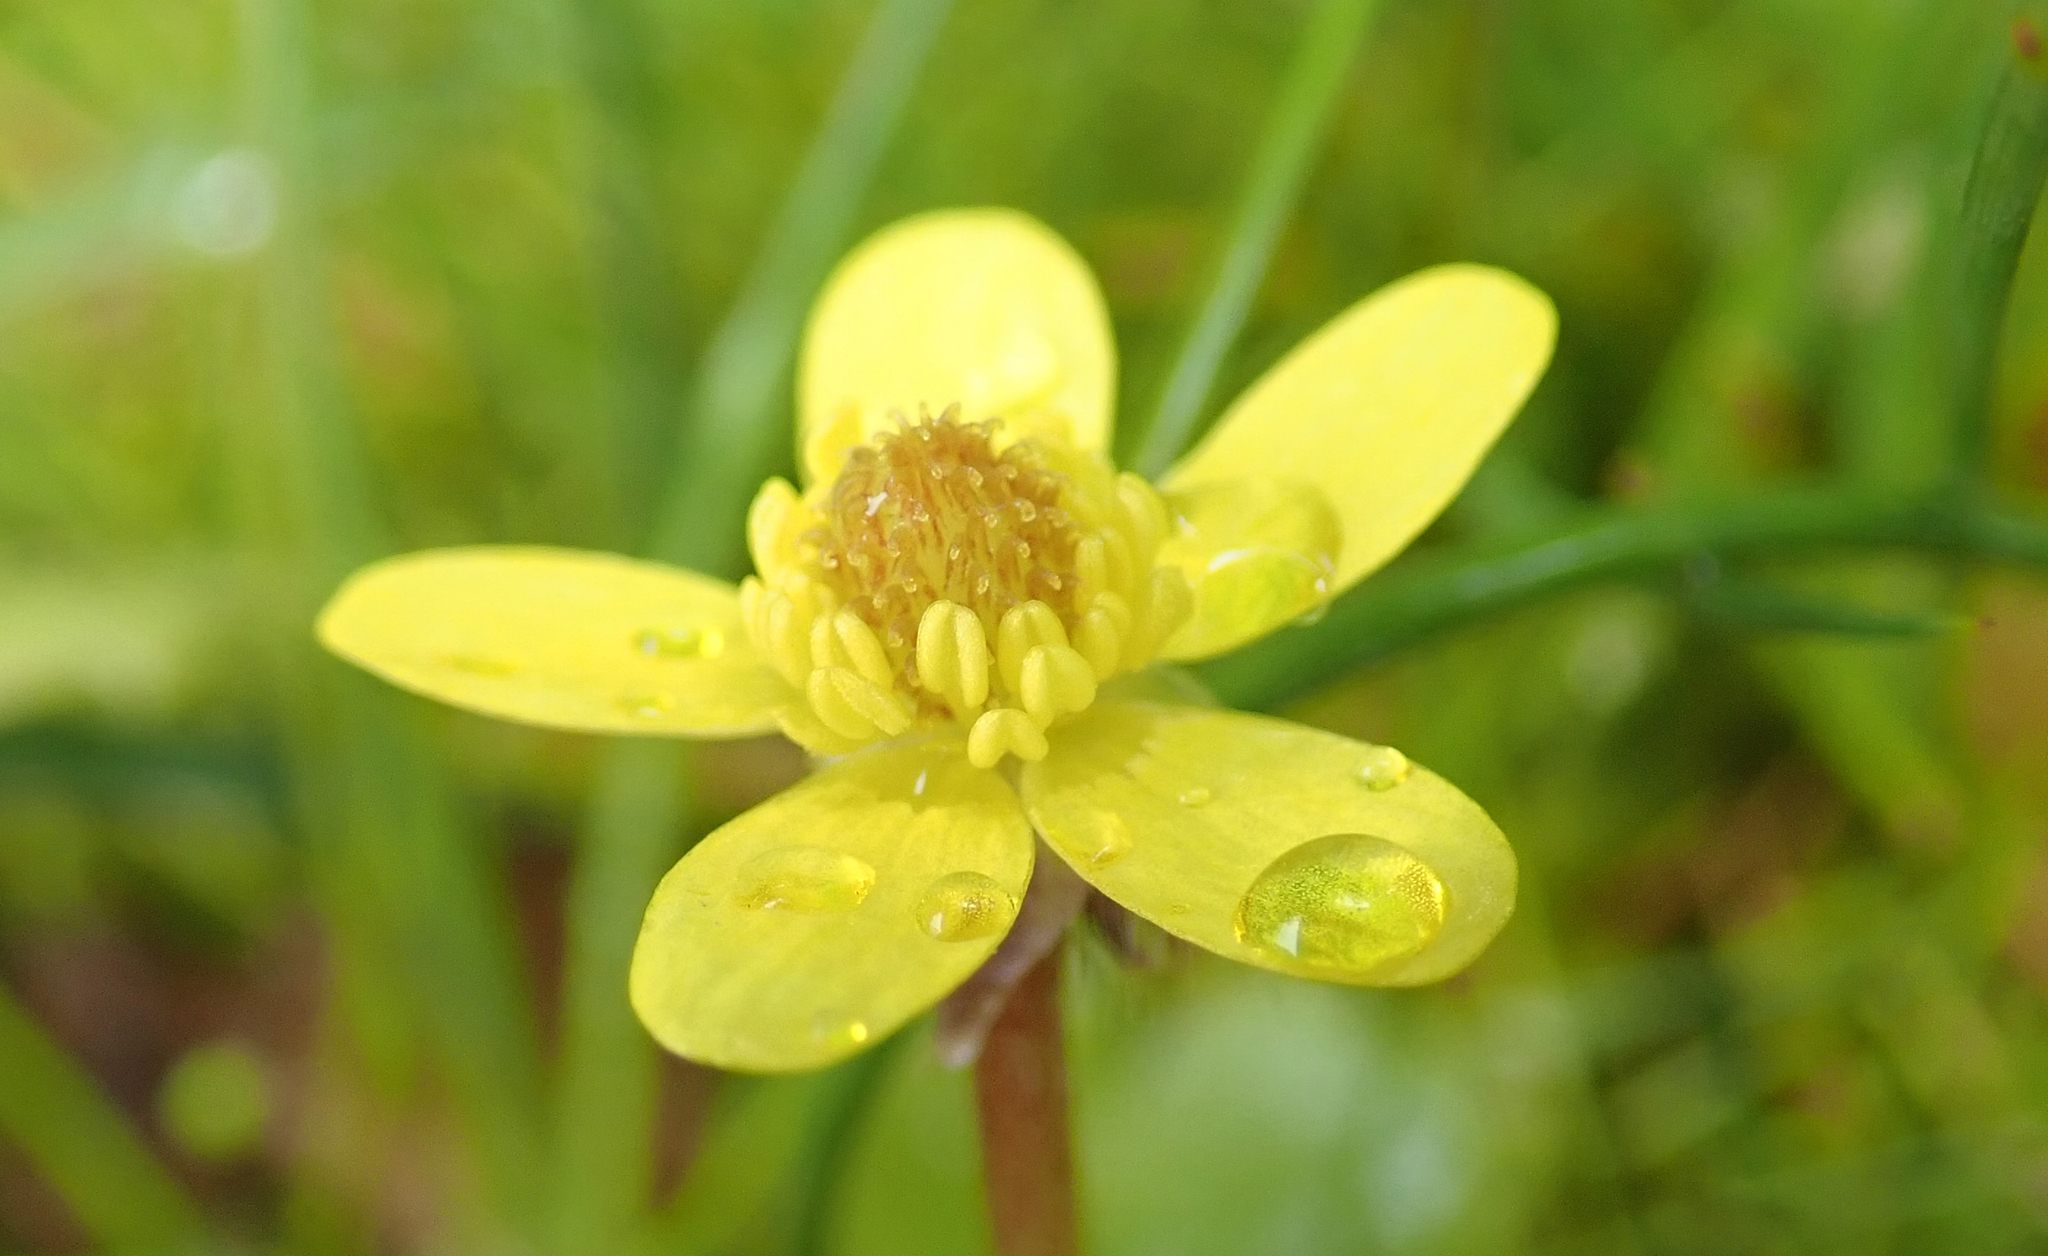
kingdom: Plantae
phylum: Tracheophyta
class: Magnoliopsida
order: Ranunculales
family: Ranunculaceae
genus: Ranunculus
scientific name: Ranunculus reflexus
